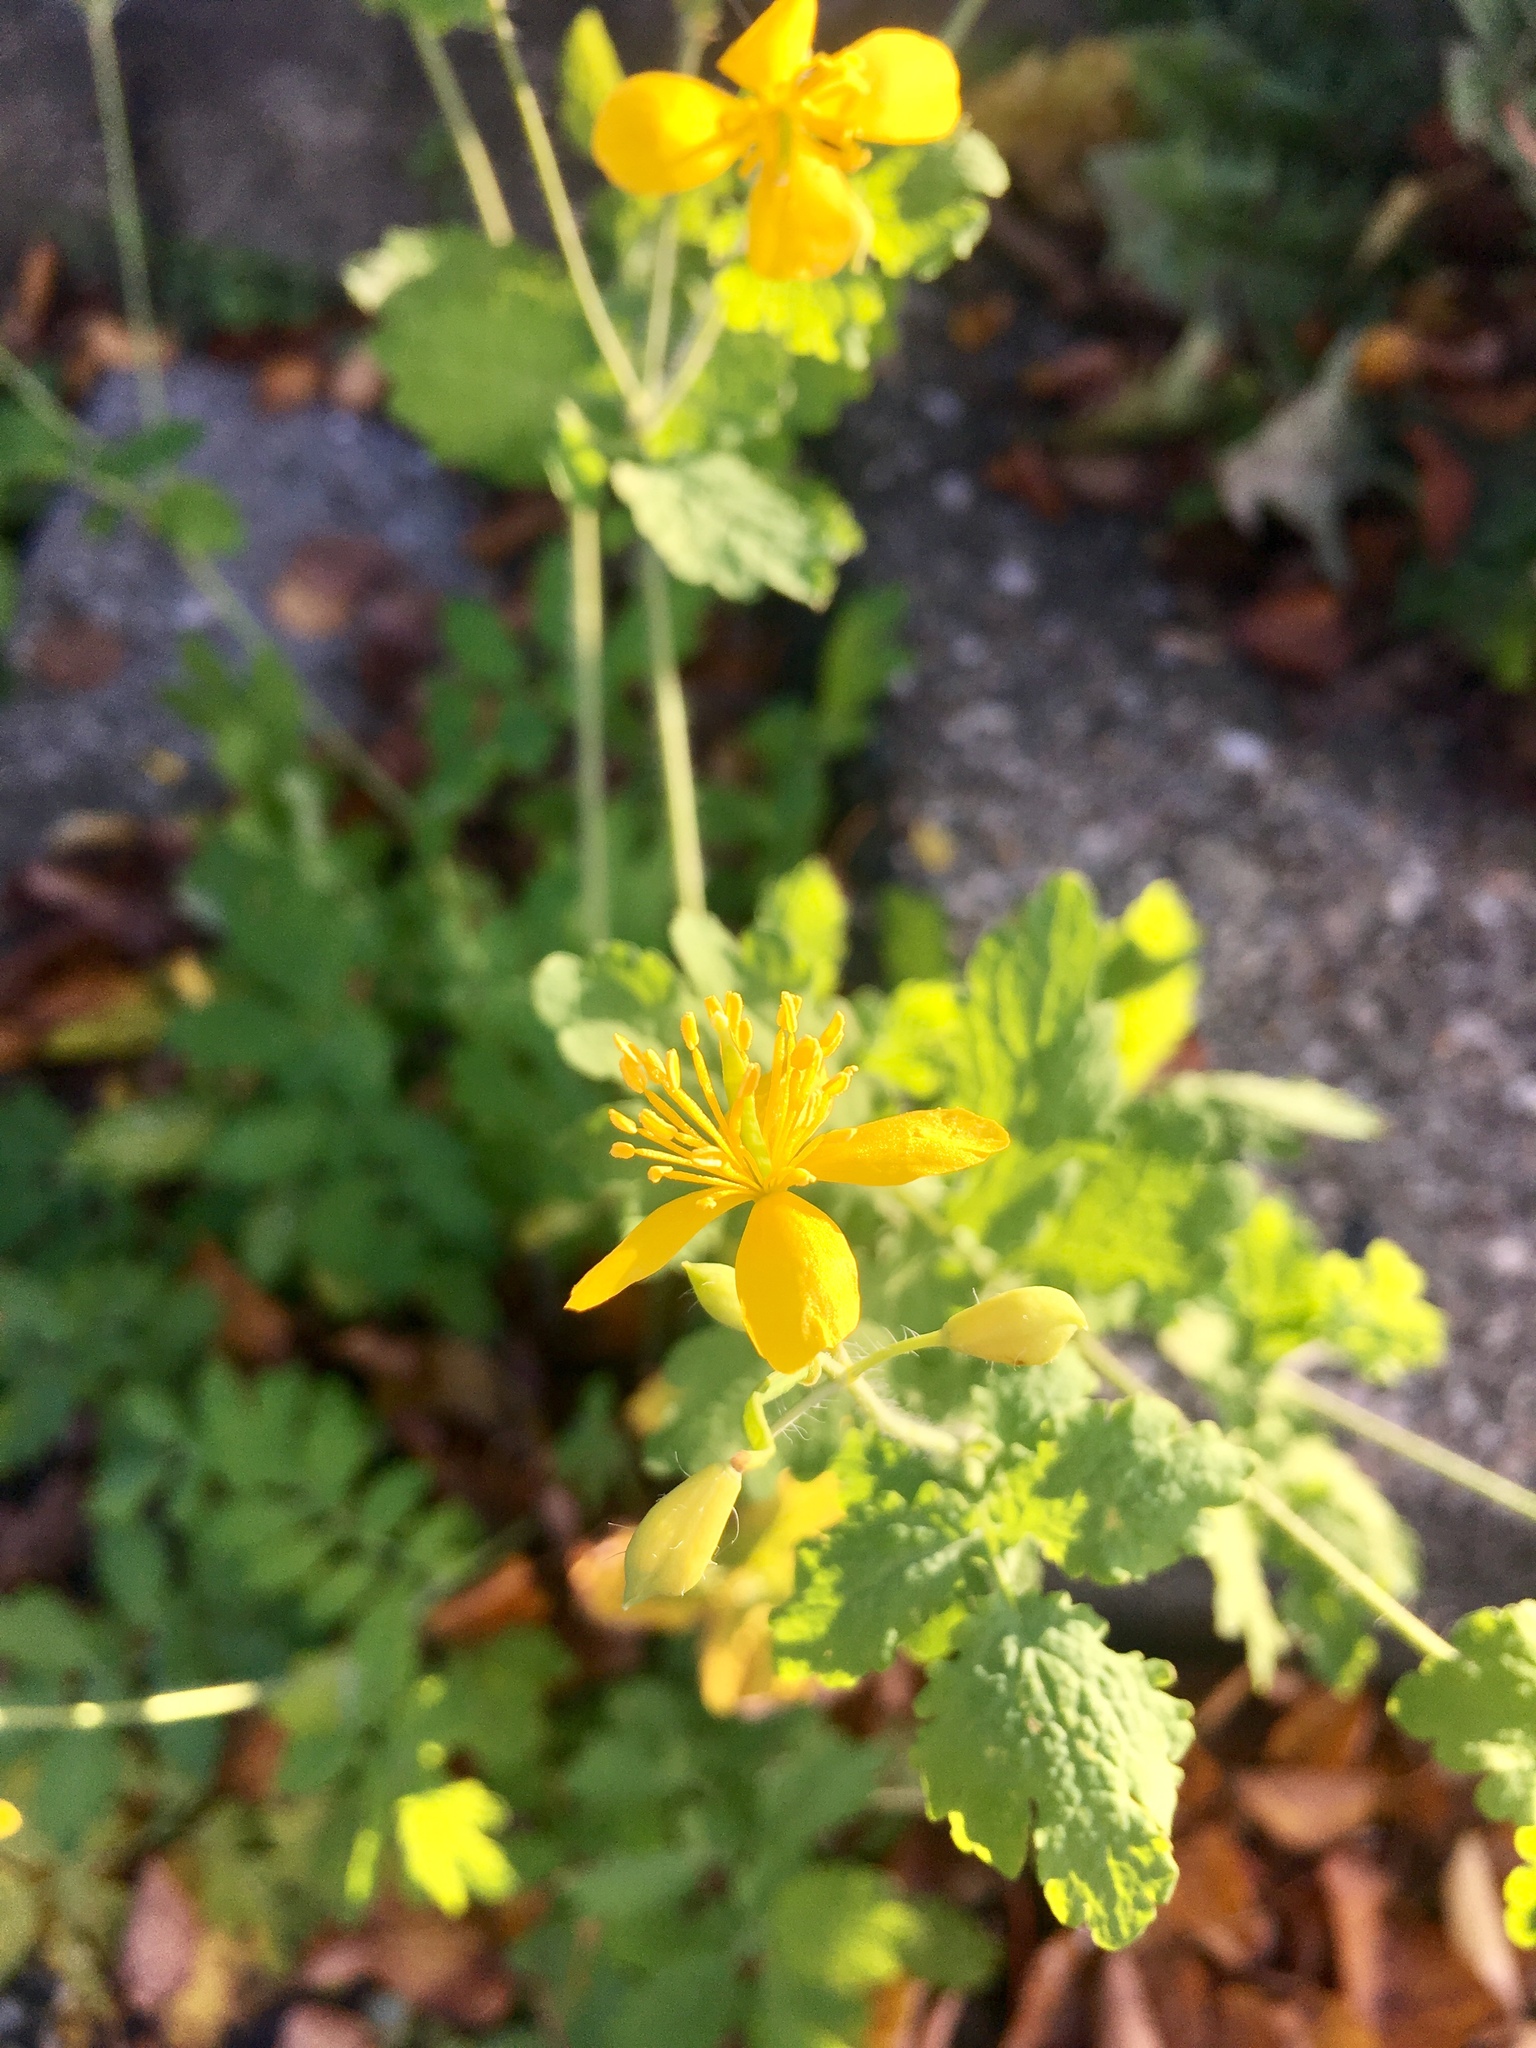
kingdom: Plantae
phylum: Tracheophyta
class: Magnoliopsida
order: Ranunculales
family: Papaveraceae
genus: Chelidonium
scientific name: Chelidonium majus
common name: Greater celandine
